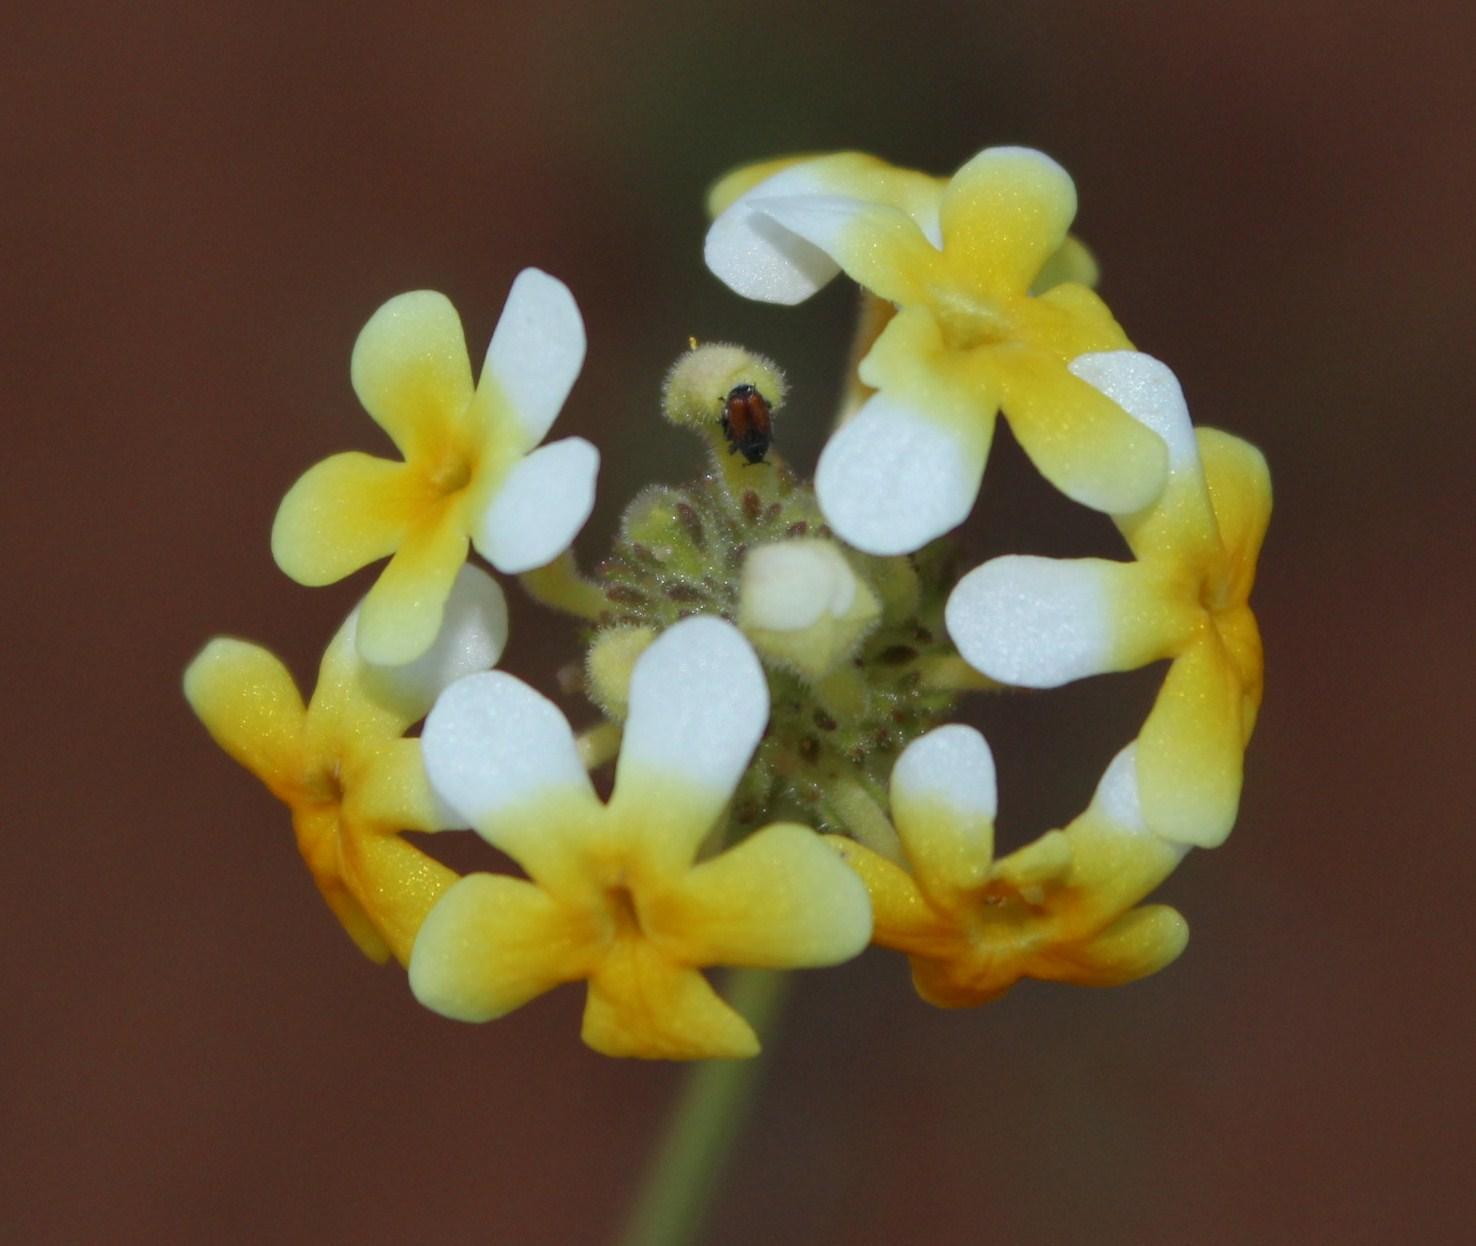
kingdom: Plantae
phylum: Tracheophyta
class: Magnoliopsida
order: Lamiales
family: Scrophulariaceae
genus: Manulea
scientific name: Manulea altissima
